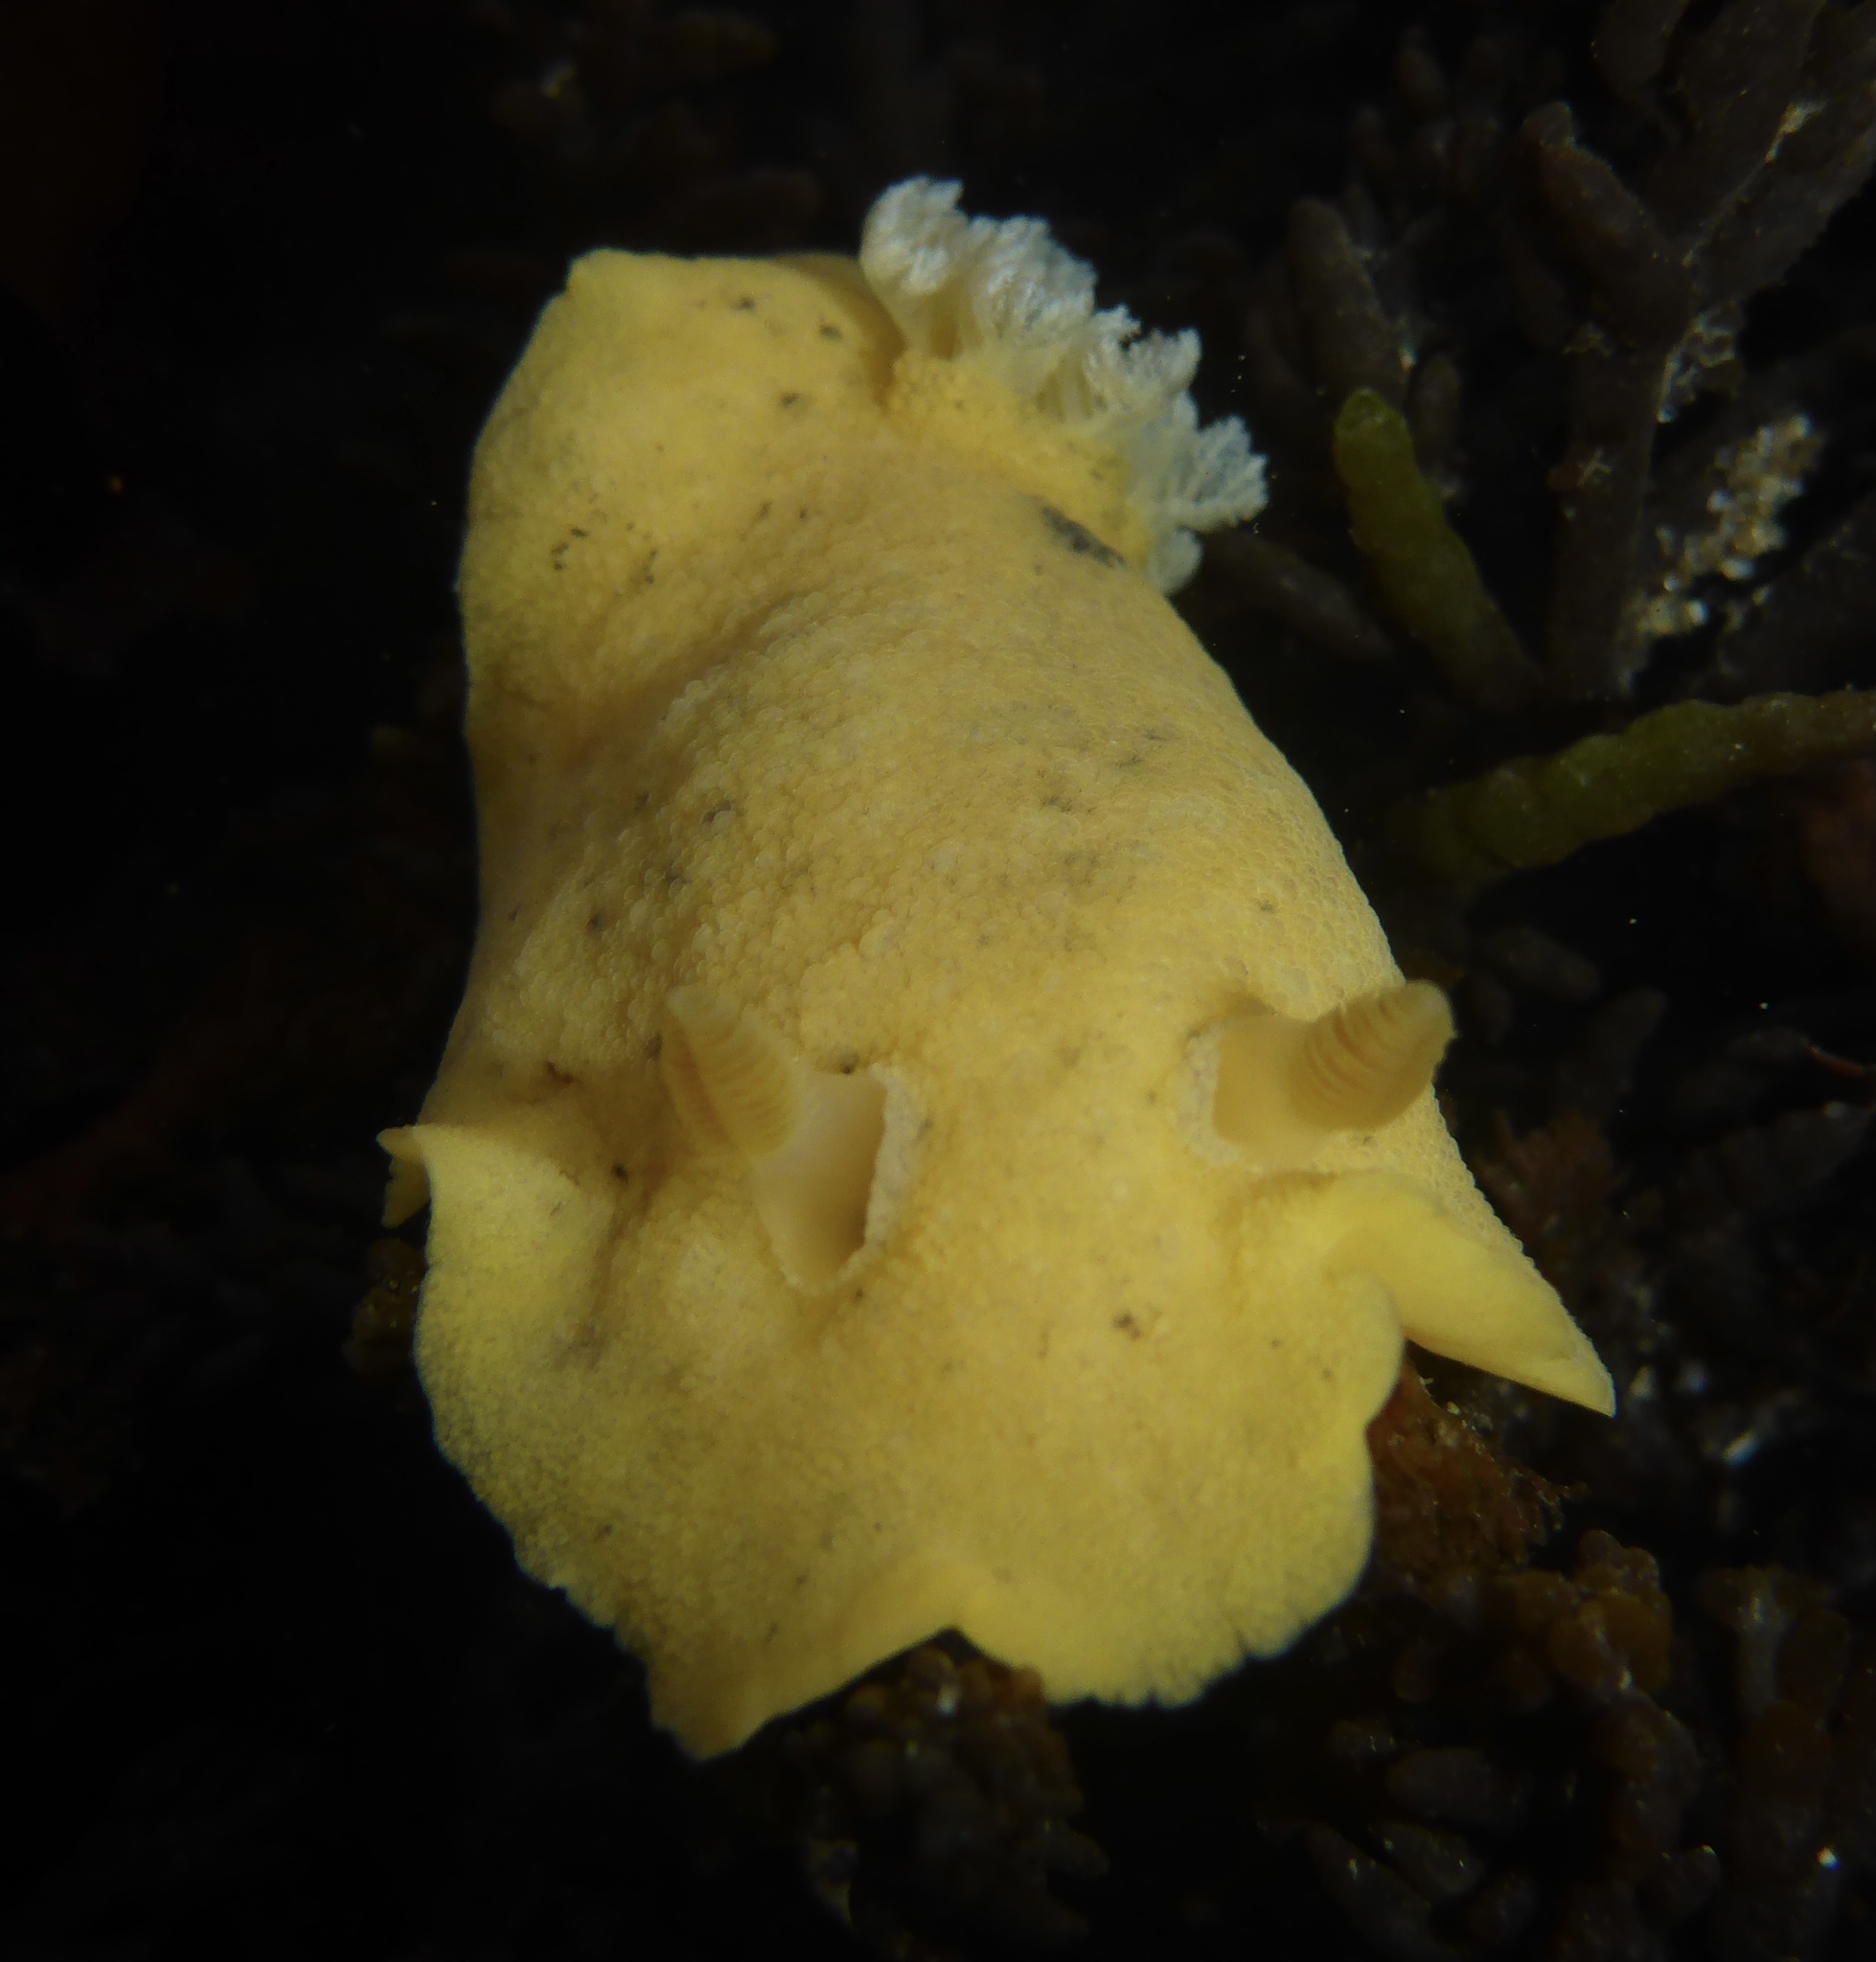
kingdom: Animalia
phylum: Mollusca
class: Gastropoda
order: Nudibranchia
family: Discodorididae
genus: Geitodoris
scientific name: Geitodoris heathi
